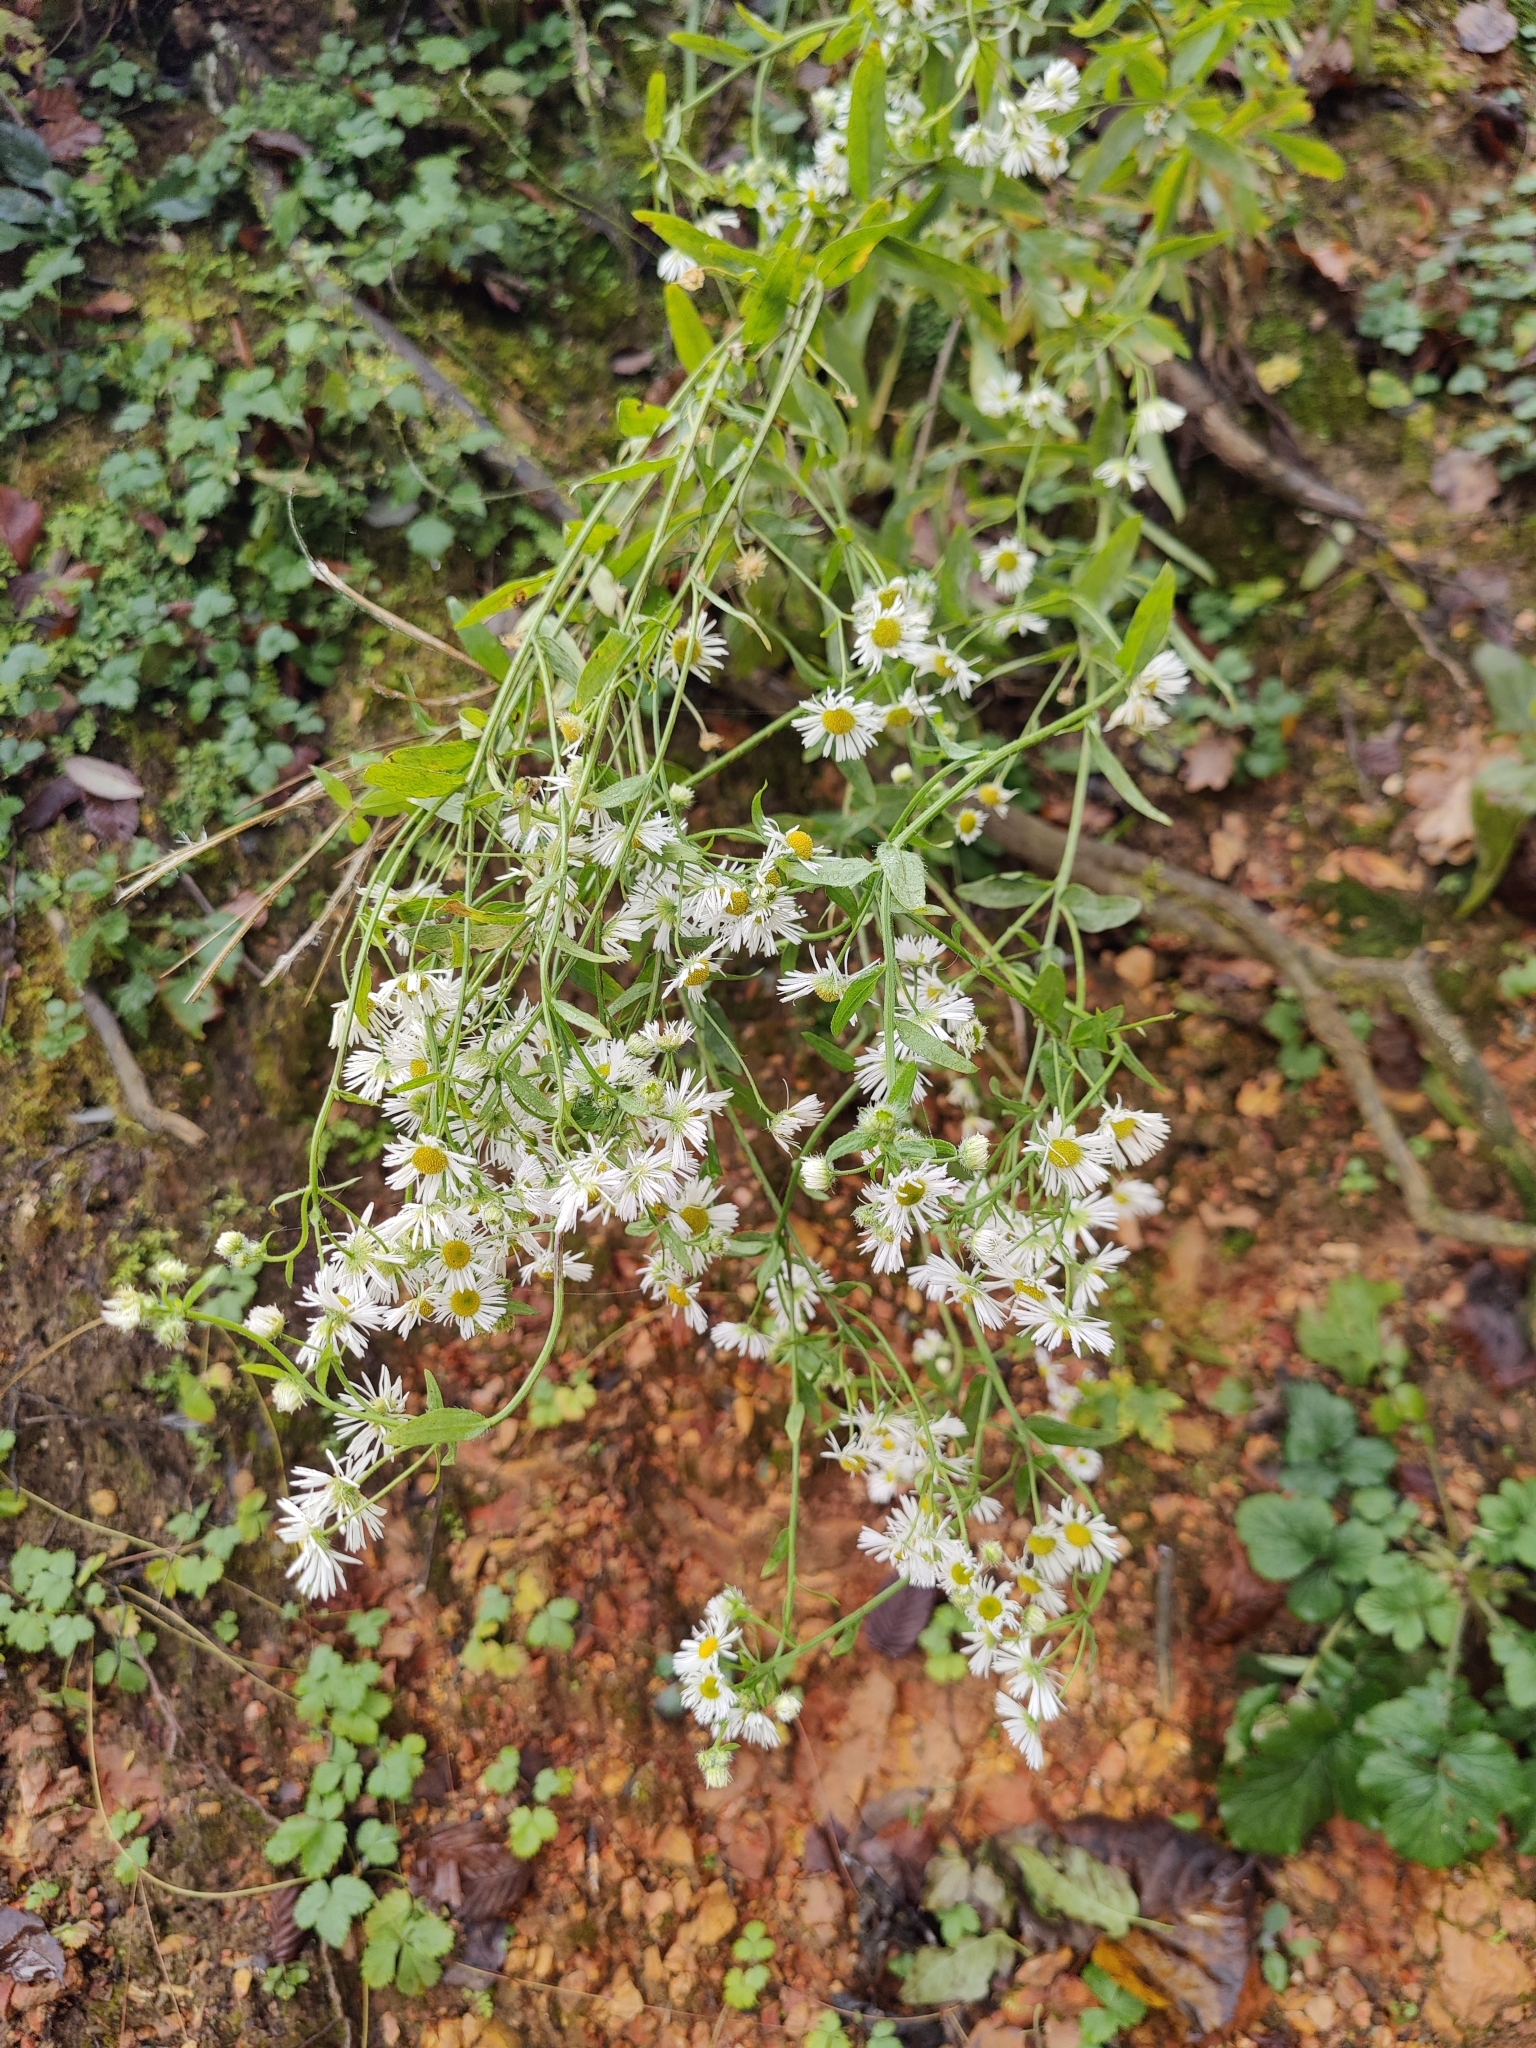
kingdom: Plantae
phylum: Tracheophyta
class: Magnoliopsida
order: Asterales
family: Asteraceae
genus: Erigeron
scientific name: Erigeron annuus
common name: Tall fleabane
